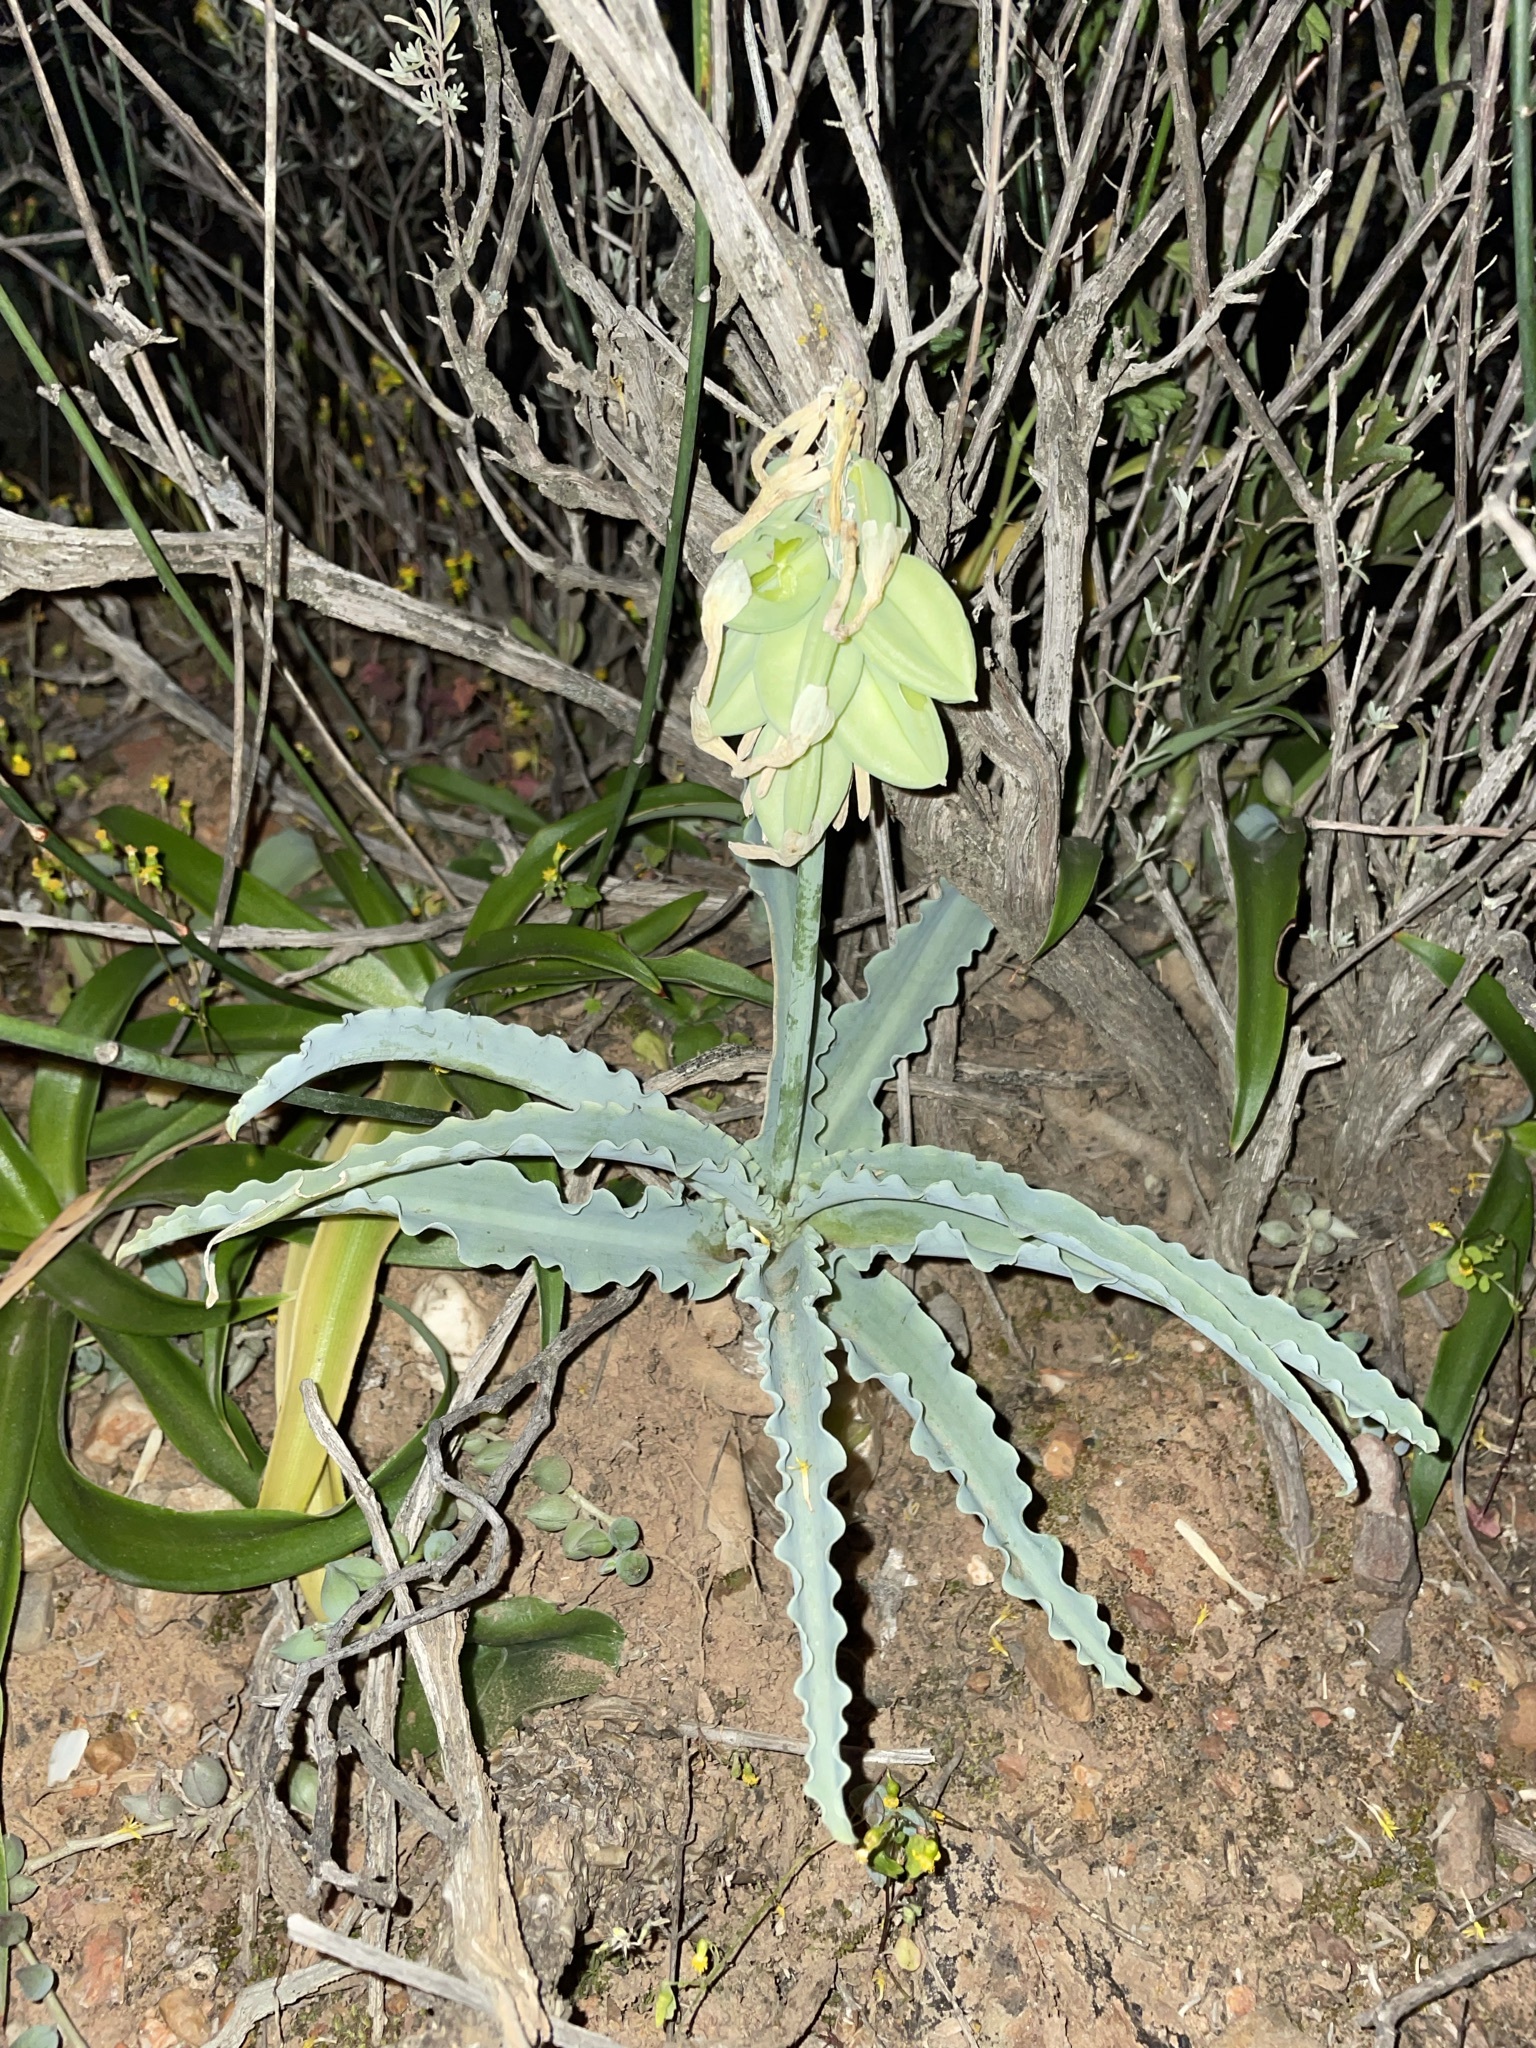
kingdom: Plantae
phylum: Tracheophyta
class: Liliopsida
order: Asparagales
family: Asparagaceae
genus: Veltheimia
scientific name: Veltheimia capensis
